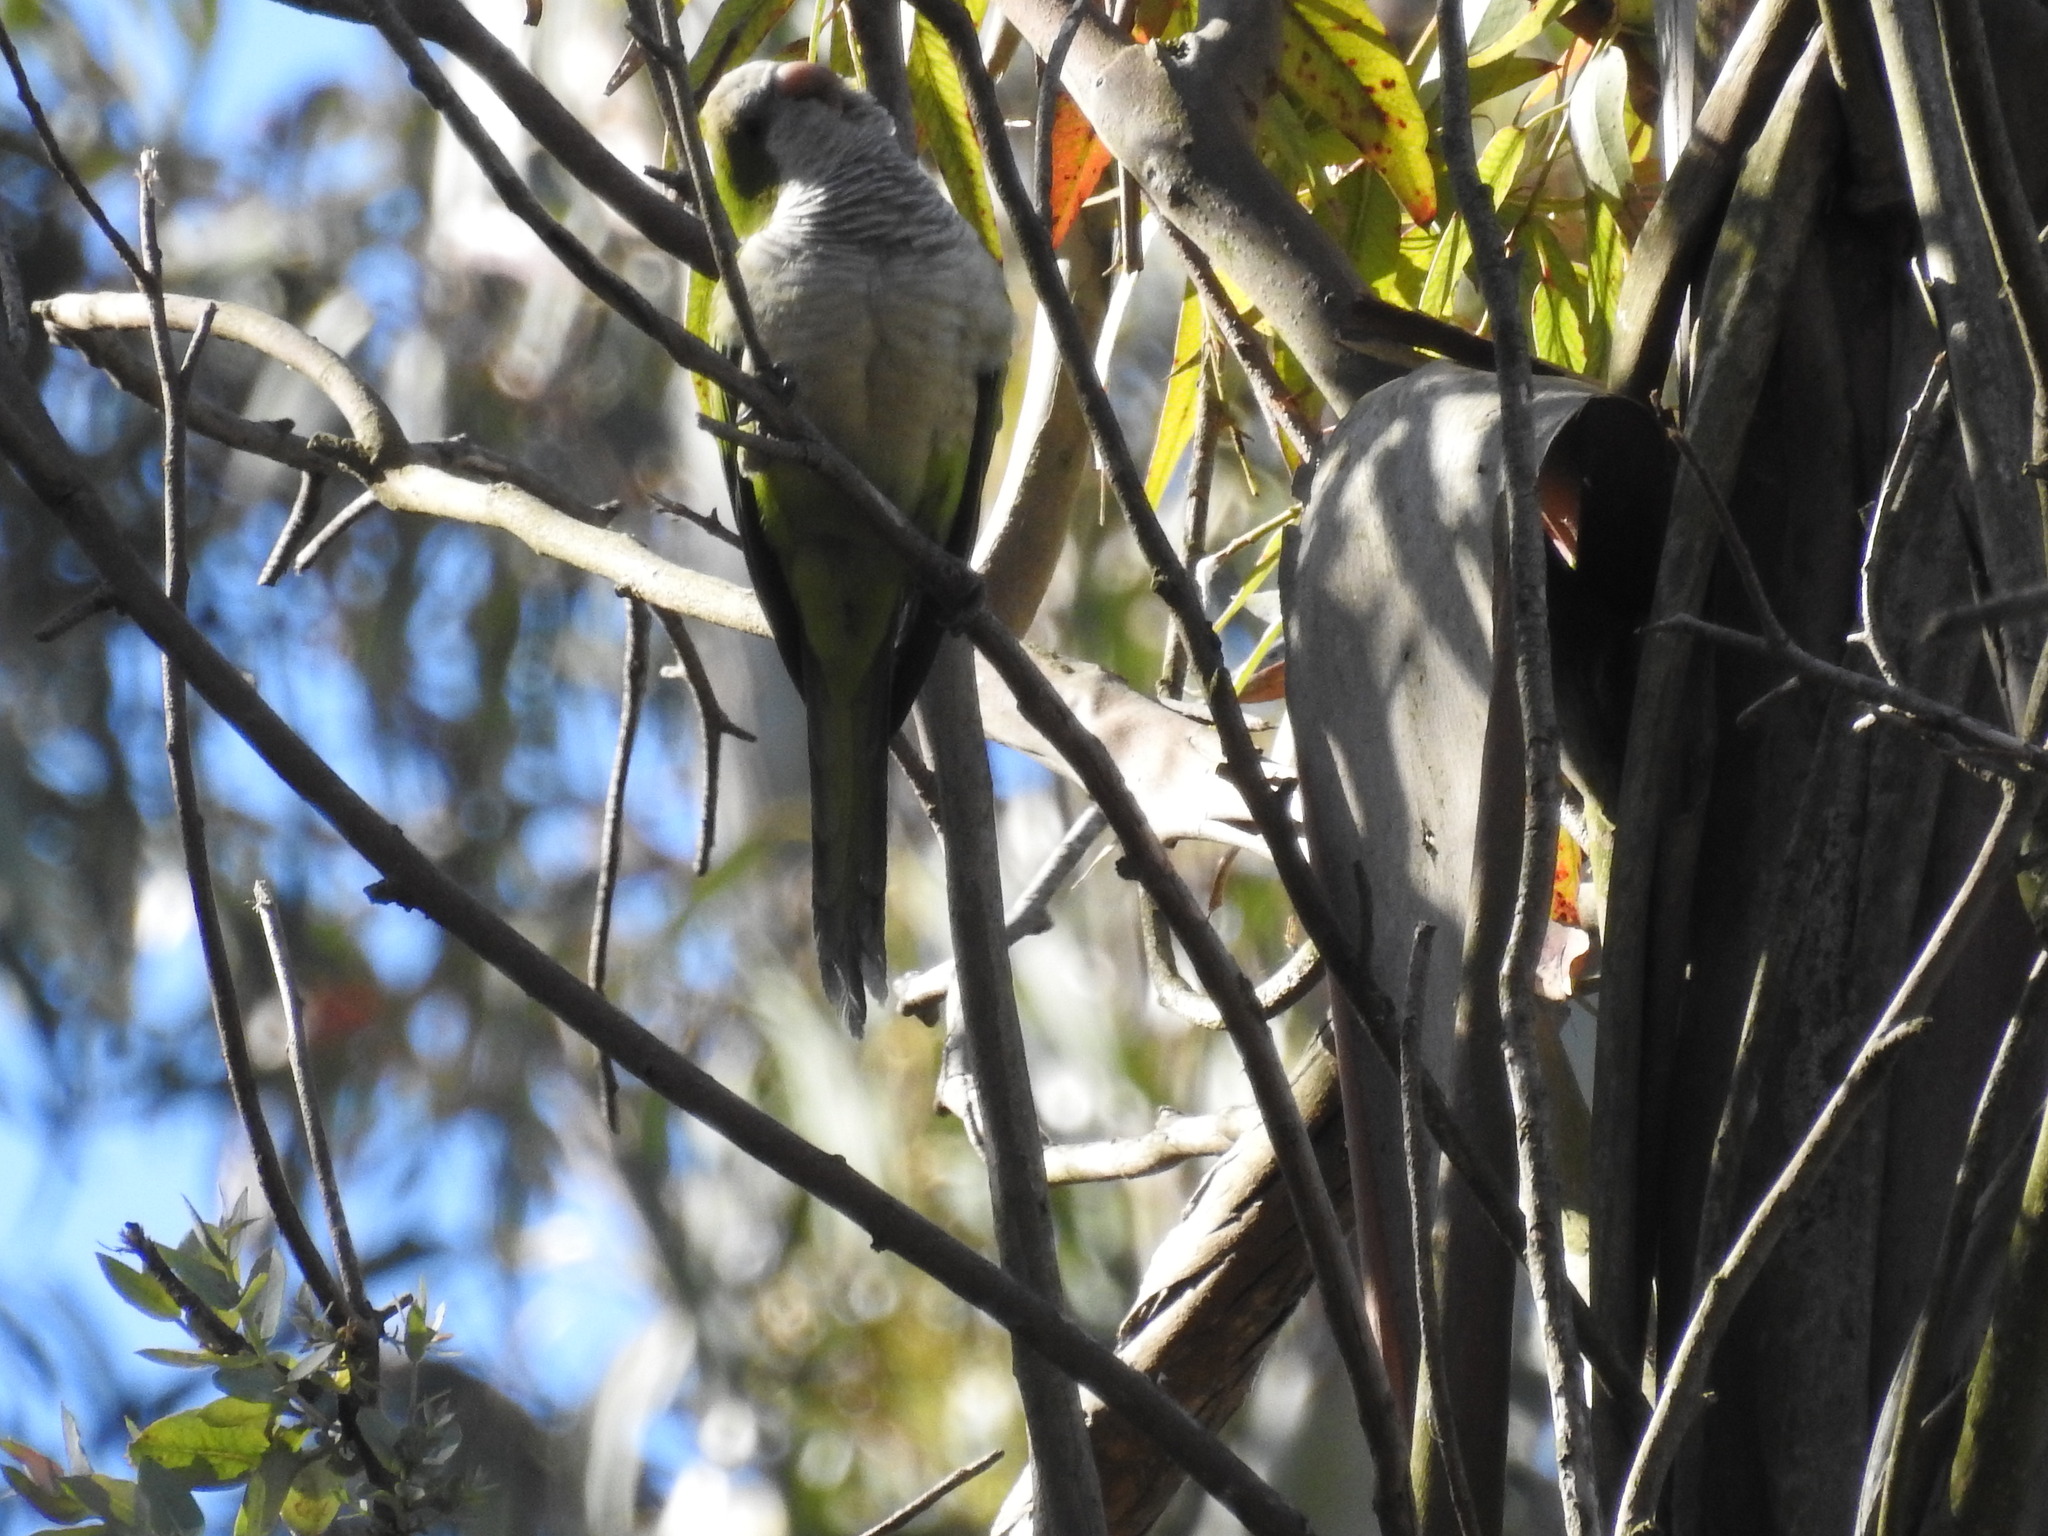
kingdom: Animalia
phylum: Chordata
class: Aves
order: Psittaciformes
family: Psittacidae
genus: Myiopsitta
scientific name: Myiopsitta monachus
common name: Monk parakeet
